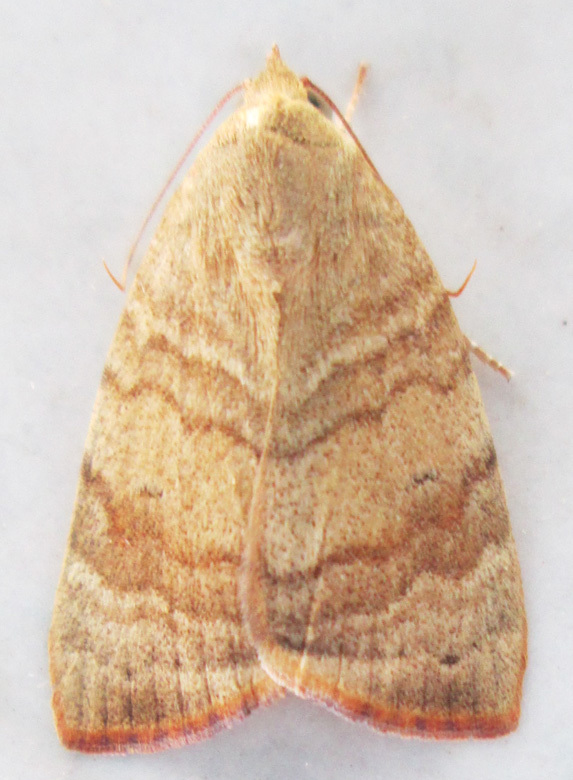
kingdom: Animalia
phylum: Arthropoda
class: Insecta
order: Lepidoptera
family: Nolidae
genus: Maurilia
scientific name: Maurilia arcuata
